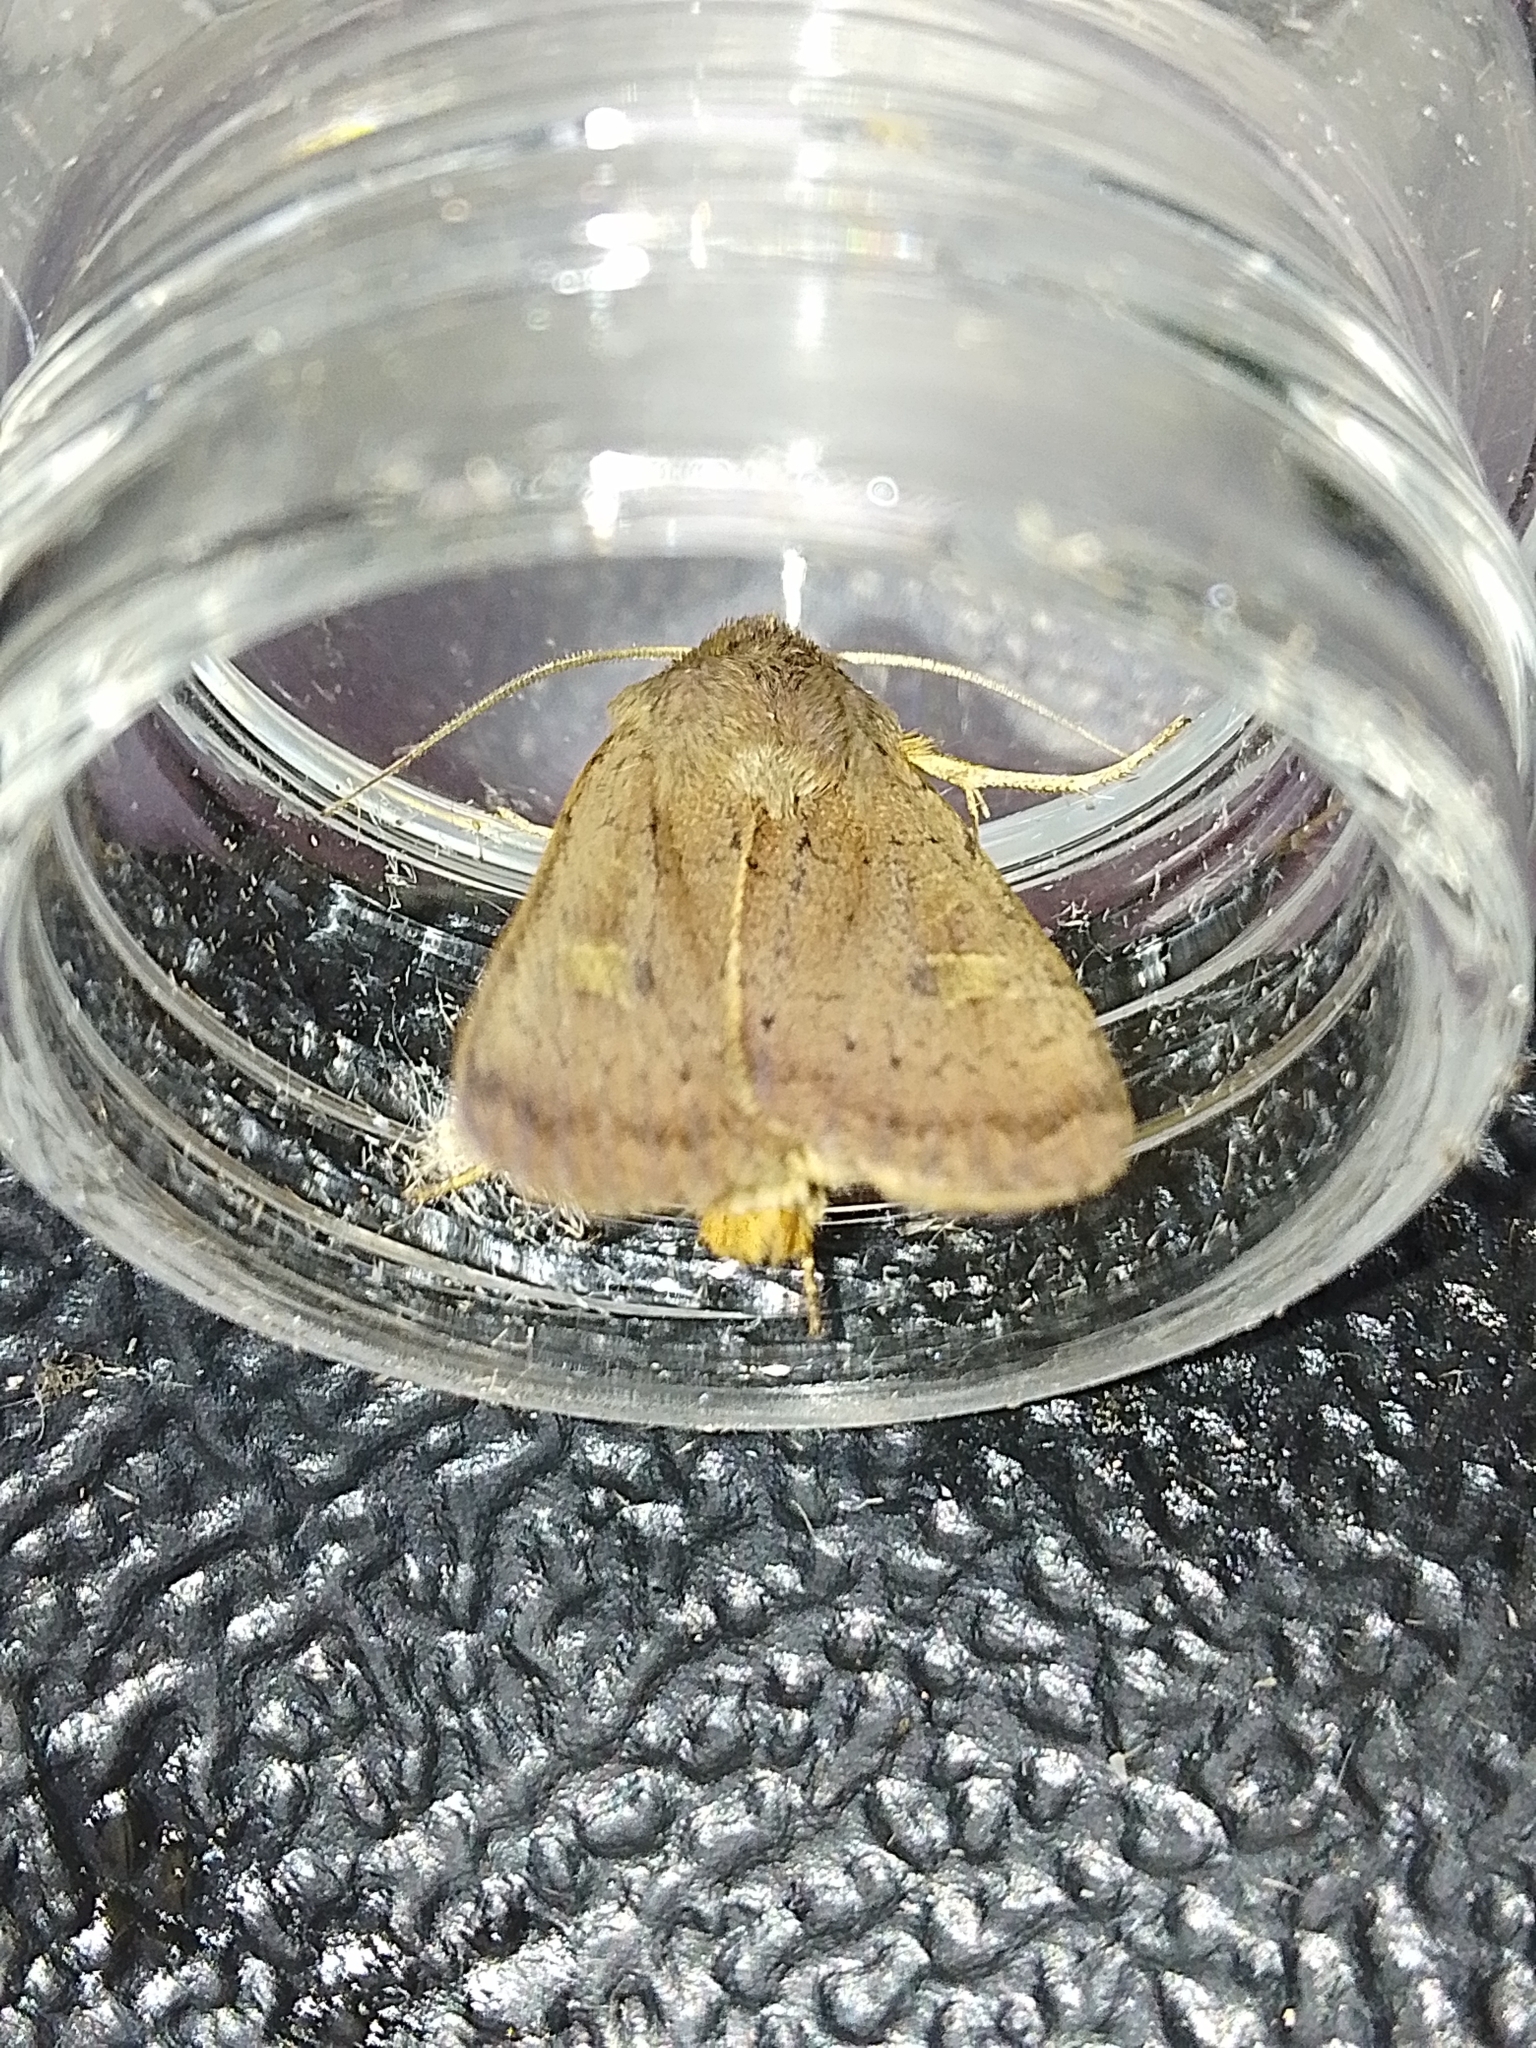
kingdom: Animalia
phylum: Arthropoda
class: Insecta
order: Lepidoptera
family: Noctuidae
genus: Xestia
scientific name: Xestia xanthographa
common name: Square-spot rustic
